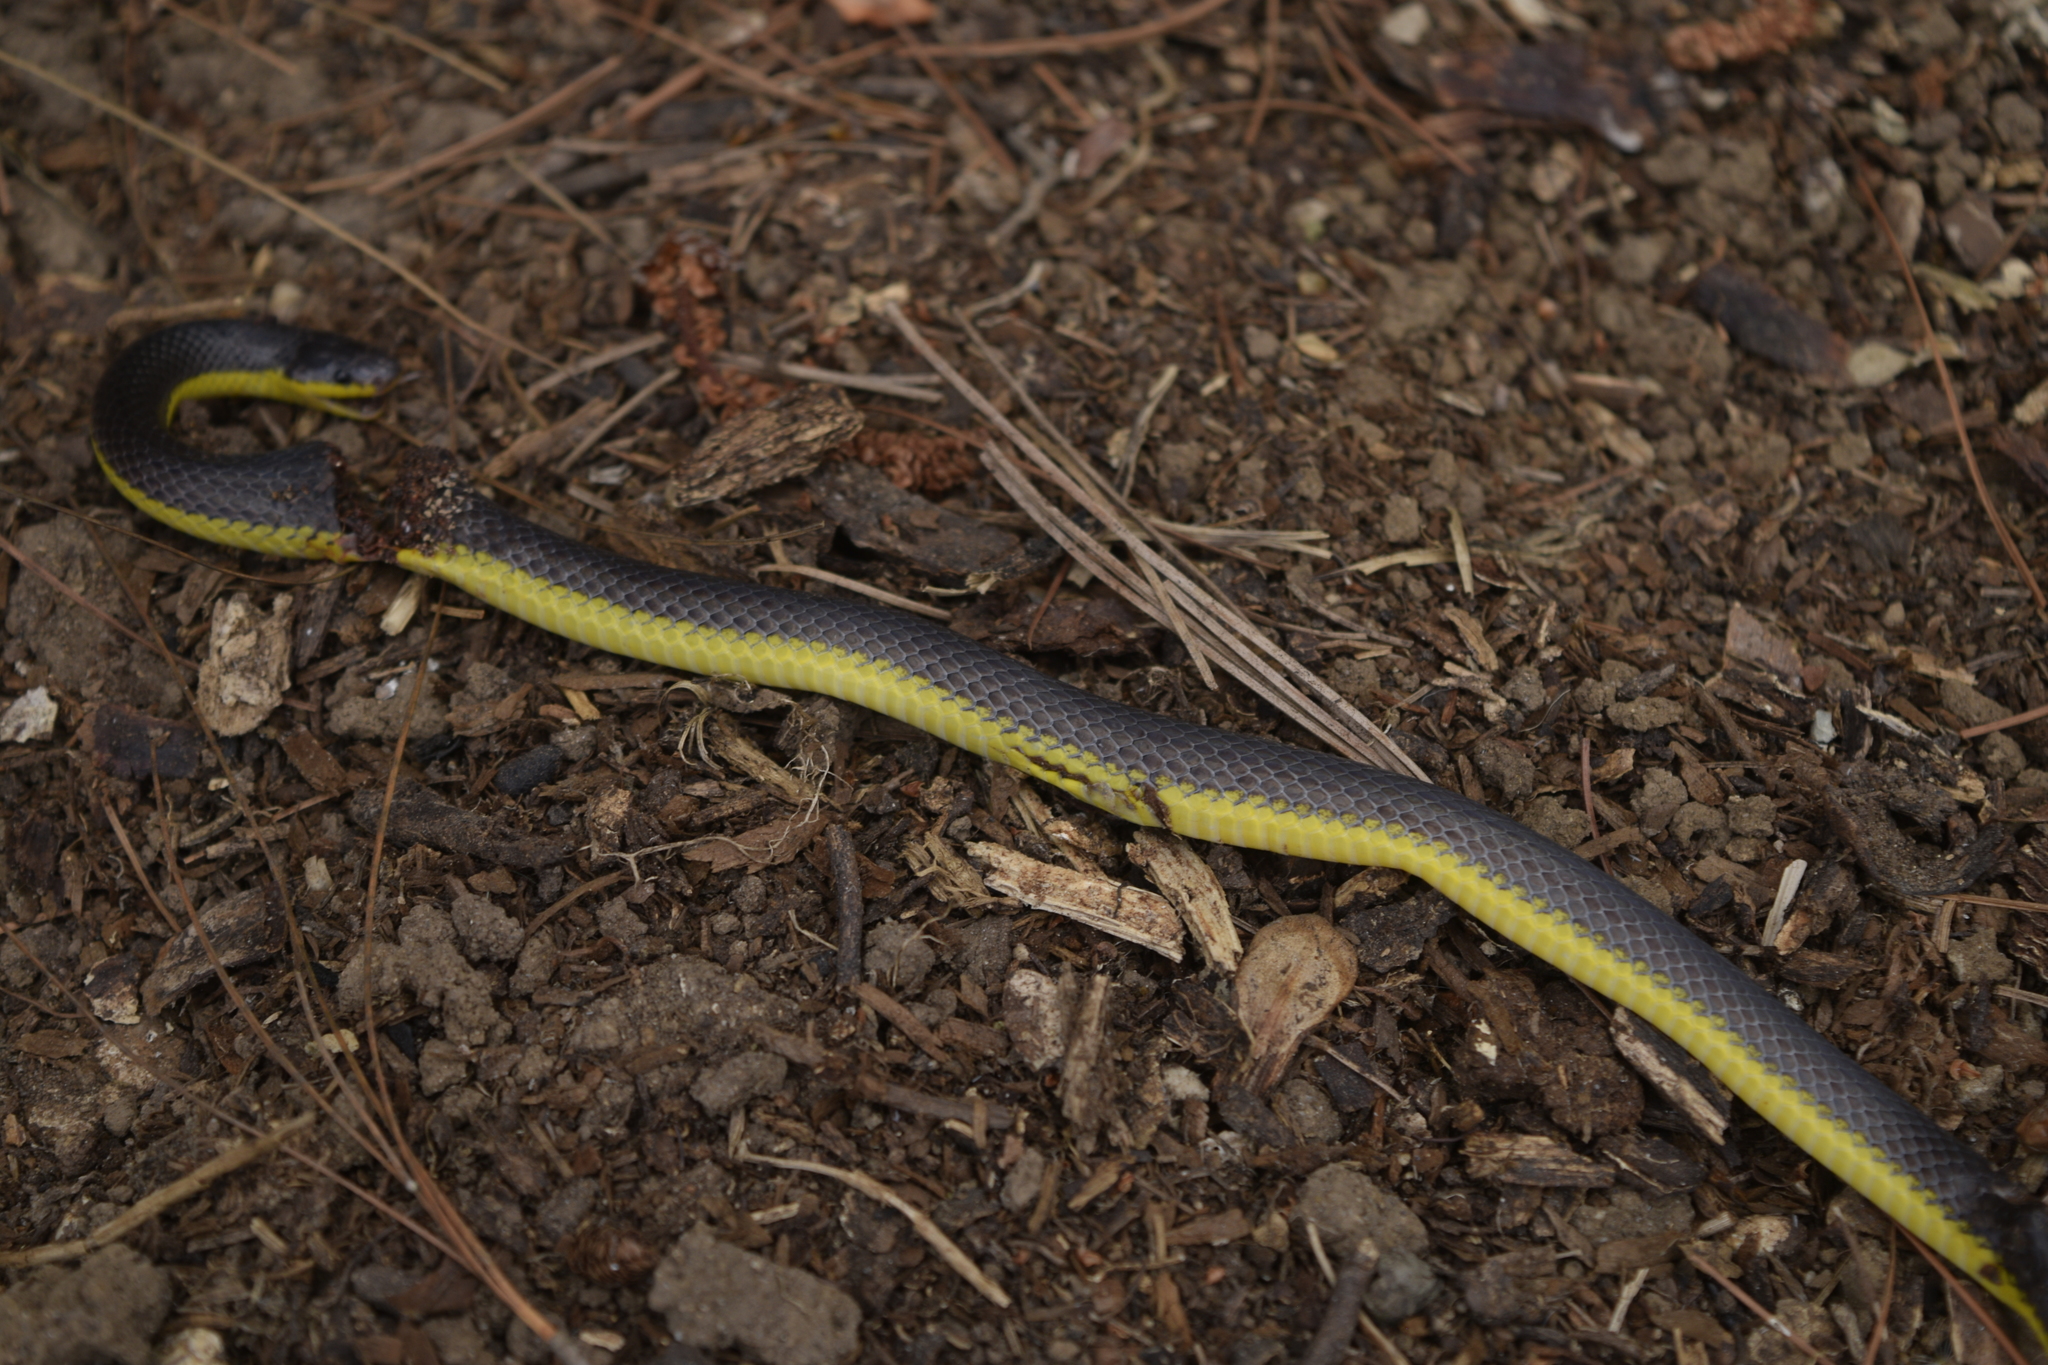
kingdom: Animalia
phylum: Chordata
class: Squamata
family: Colubridae
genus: Geophis
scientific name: Geophis rhodogaster
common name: Rosebelly earth snake
